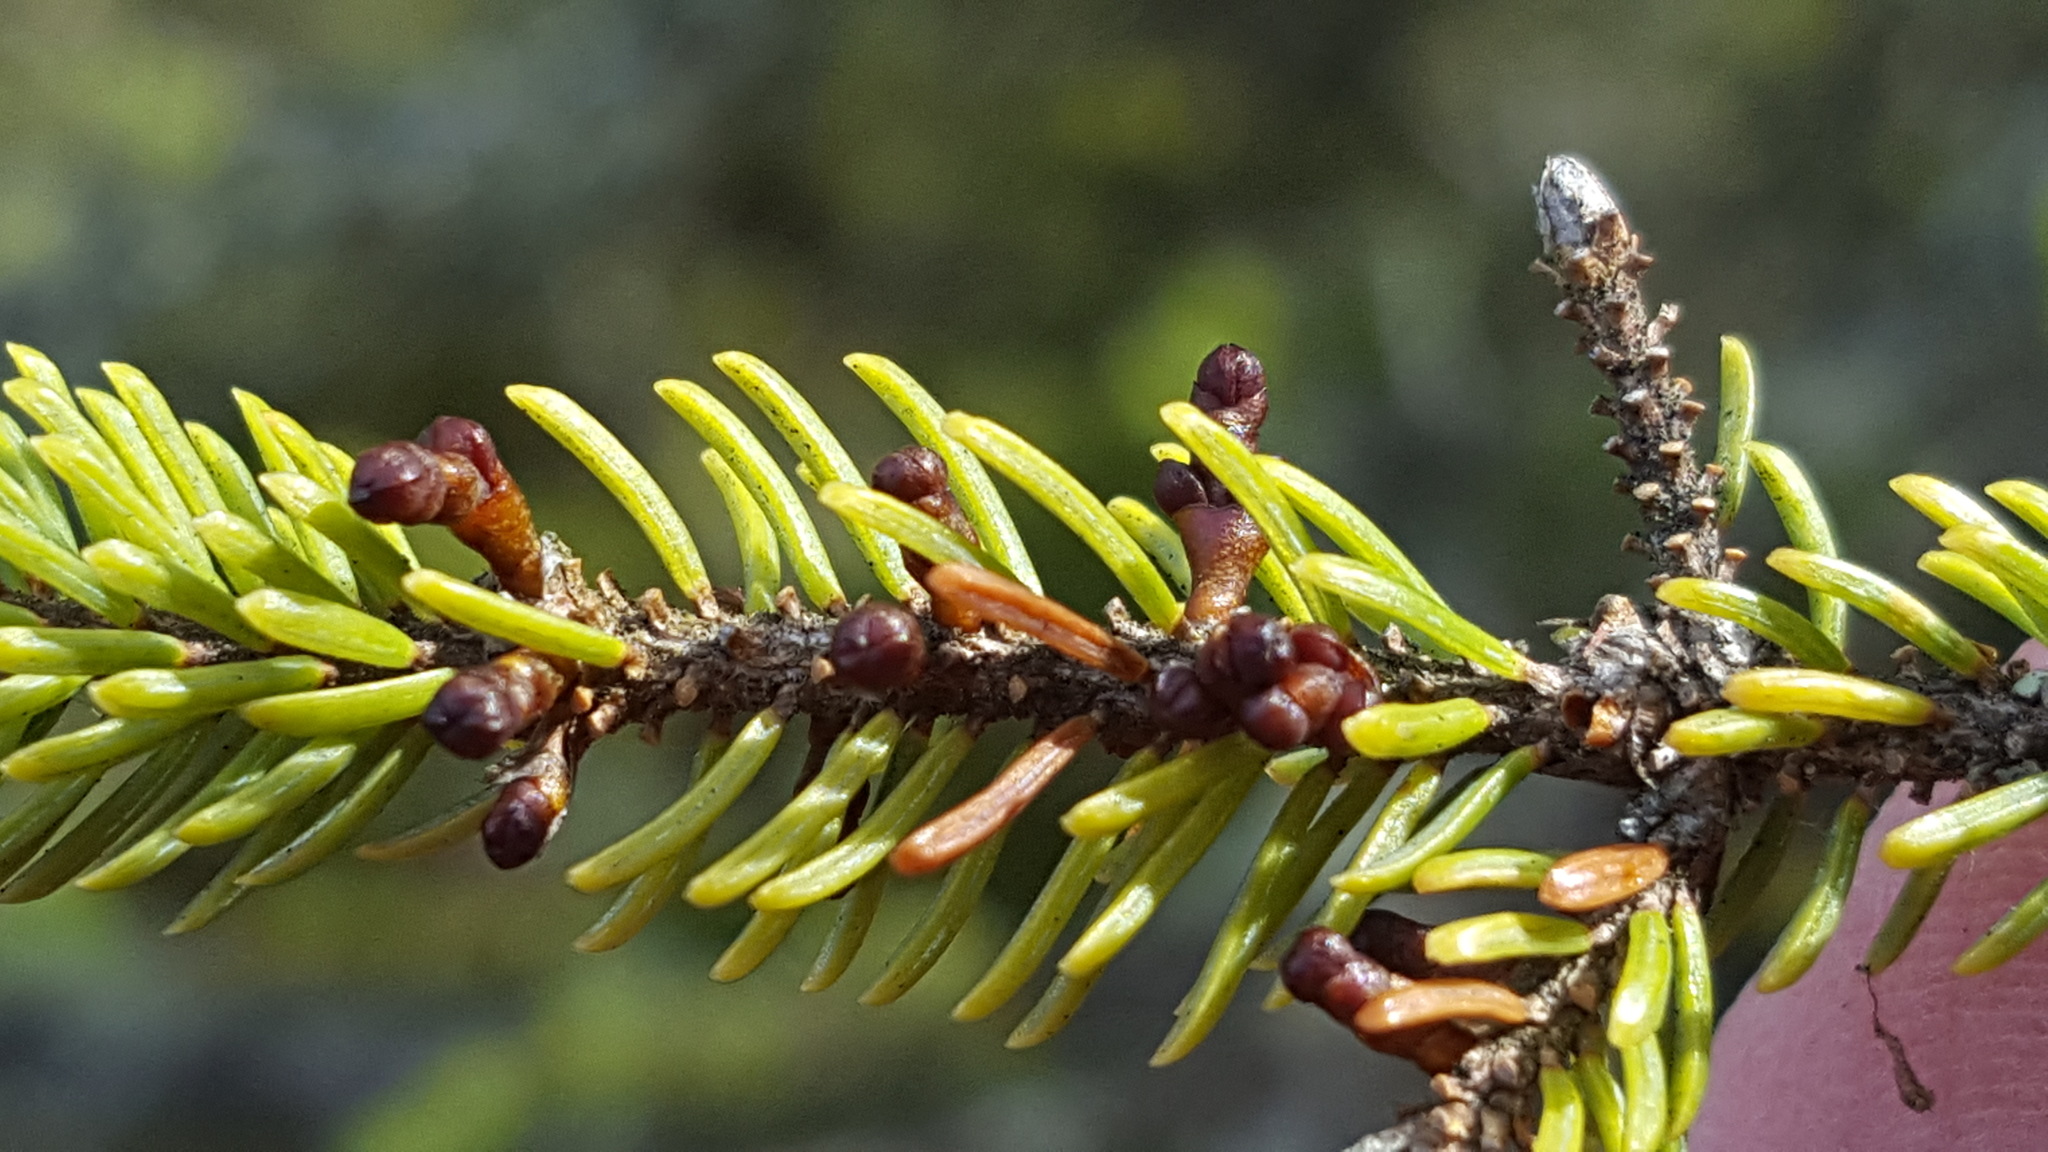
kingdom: Plantae
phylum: Tracheophyta
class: Magnoliopsida
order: Santalales
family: Viscaceae
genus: Arceuthobium
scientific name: Arceuthobium pusillum
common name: Dwarf-mistletoe
